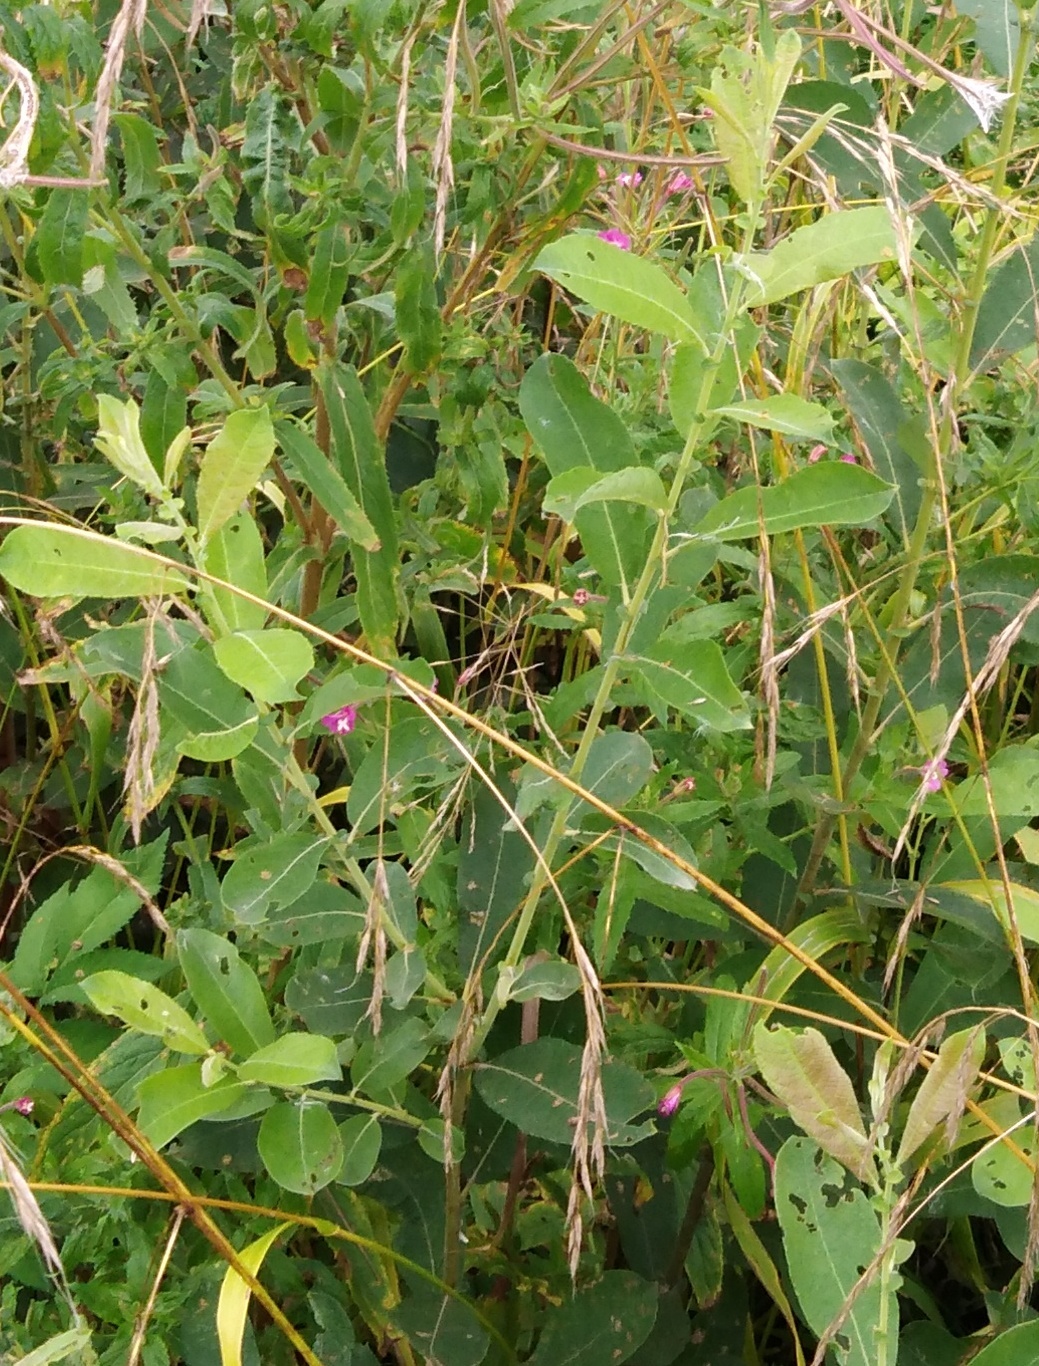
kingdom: Plantae
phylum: Tracheophyta
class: Magnoliopsida
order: Malpighiales
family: Salicaceae
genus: Salix
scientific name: Salix cinerea
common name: Common sallow
